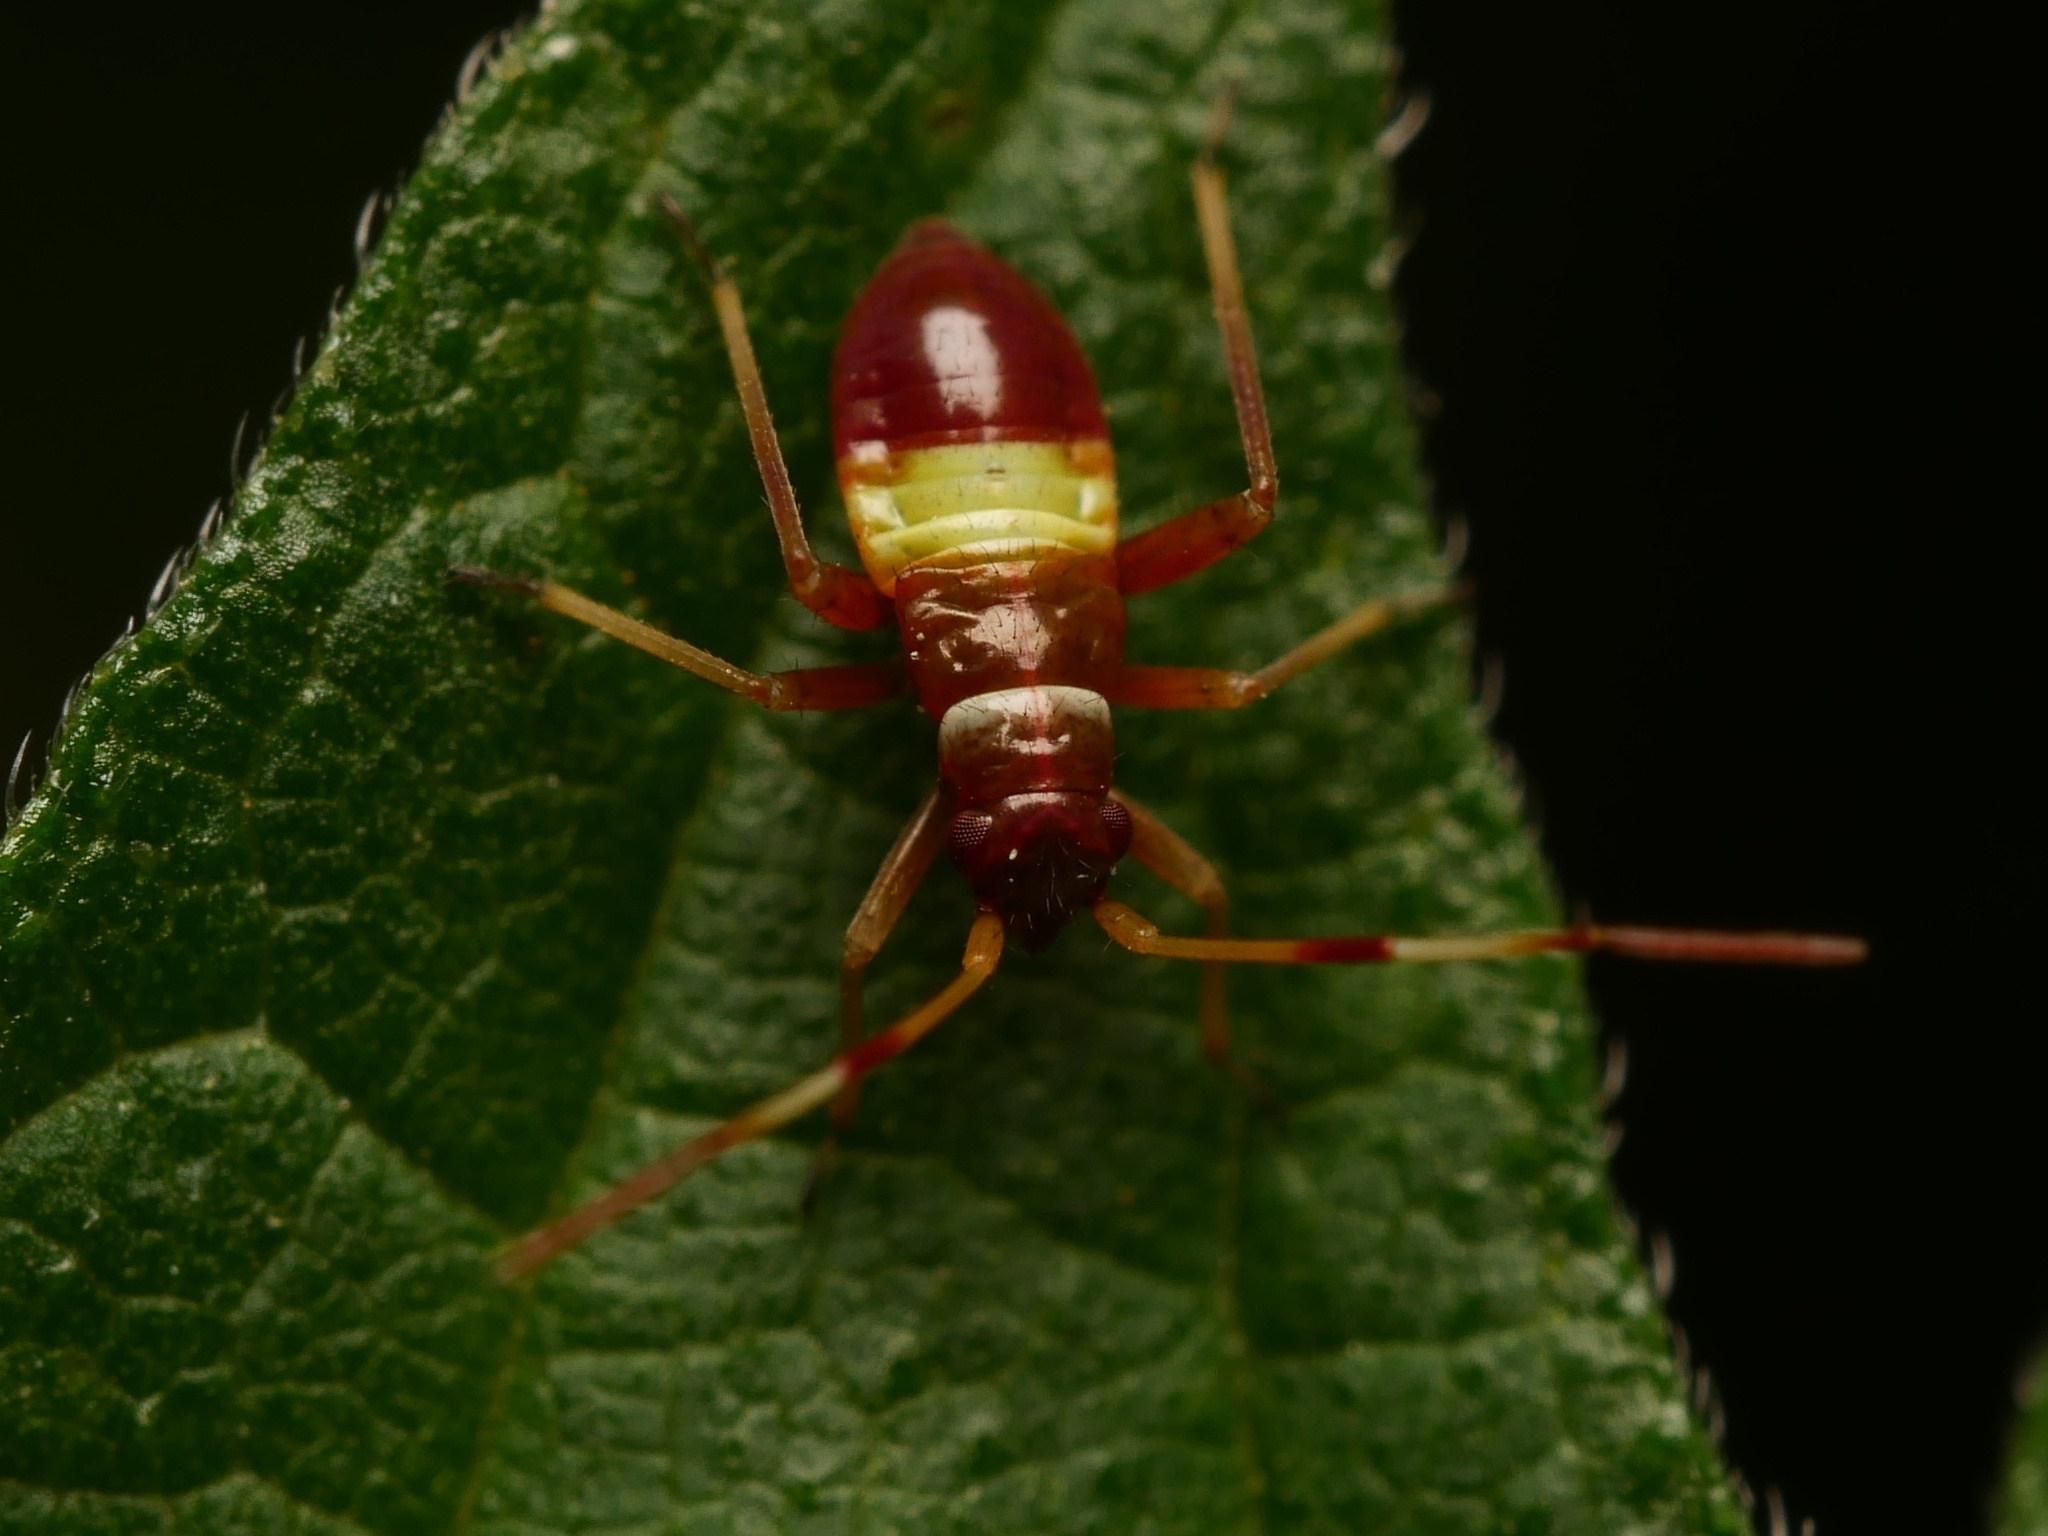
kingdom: Animalia
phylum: Arthropoda
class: Insecta
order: Hemiptera
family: Miridae
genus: Closterotomus
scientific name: Closterotomus biclavatus
